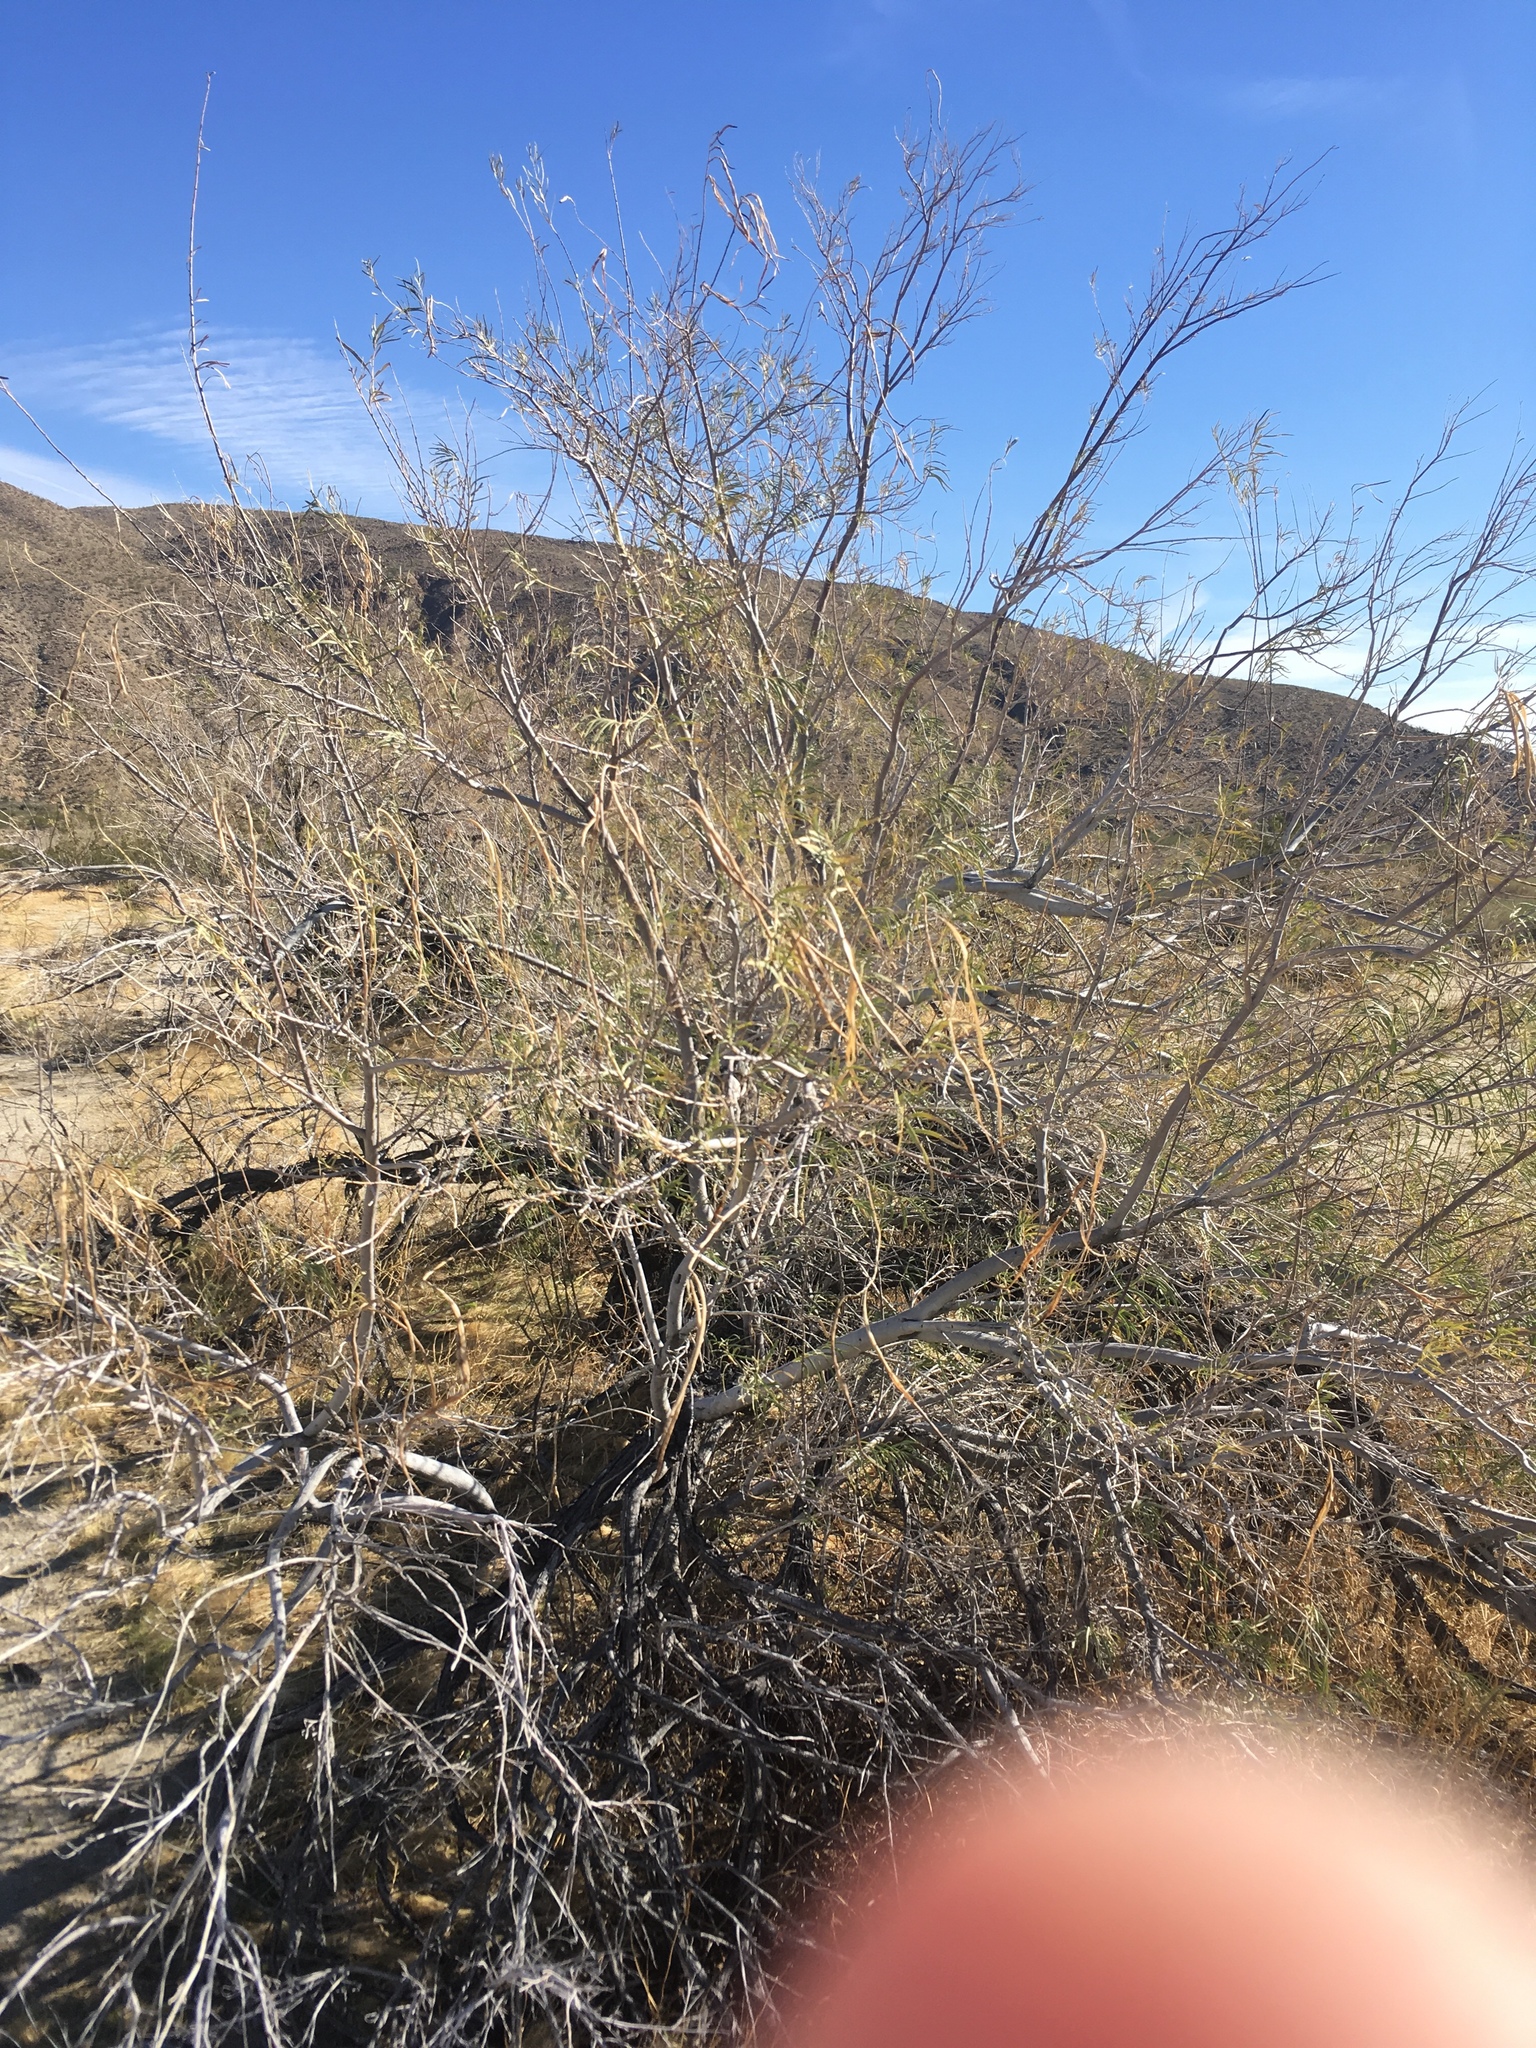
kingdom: Plantae
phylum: Tracheophyta
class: Magnoliopsida
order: Lamiales
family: Bignoniaceae
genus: Chilopsis
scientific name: Chilopsis linearis
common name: Desert-willow
